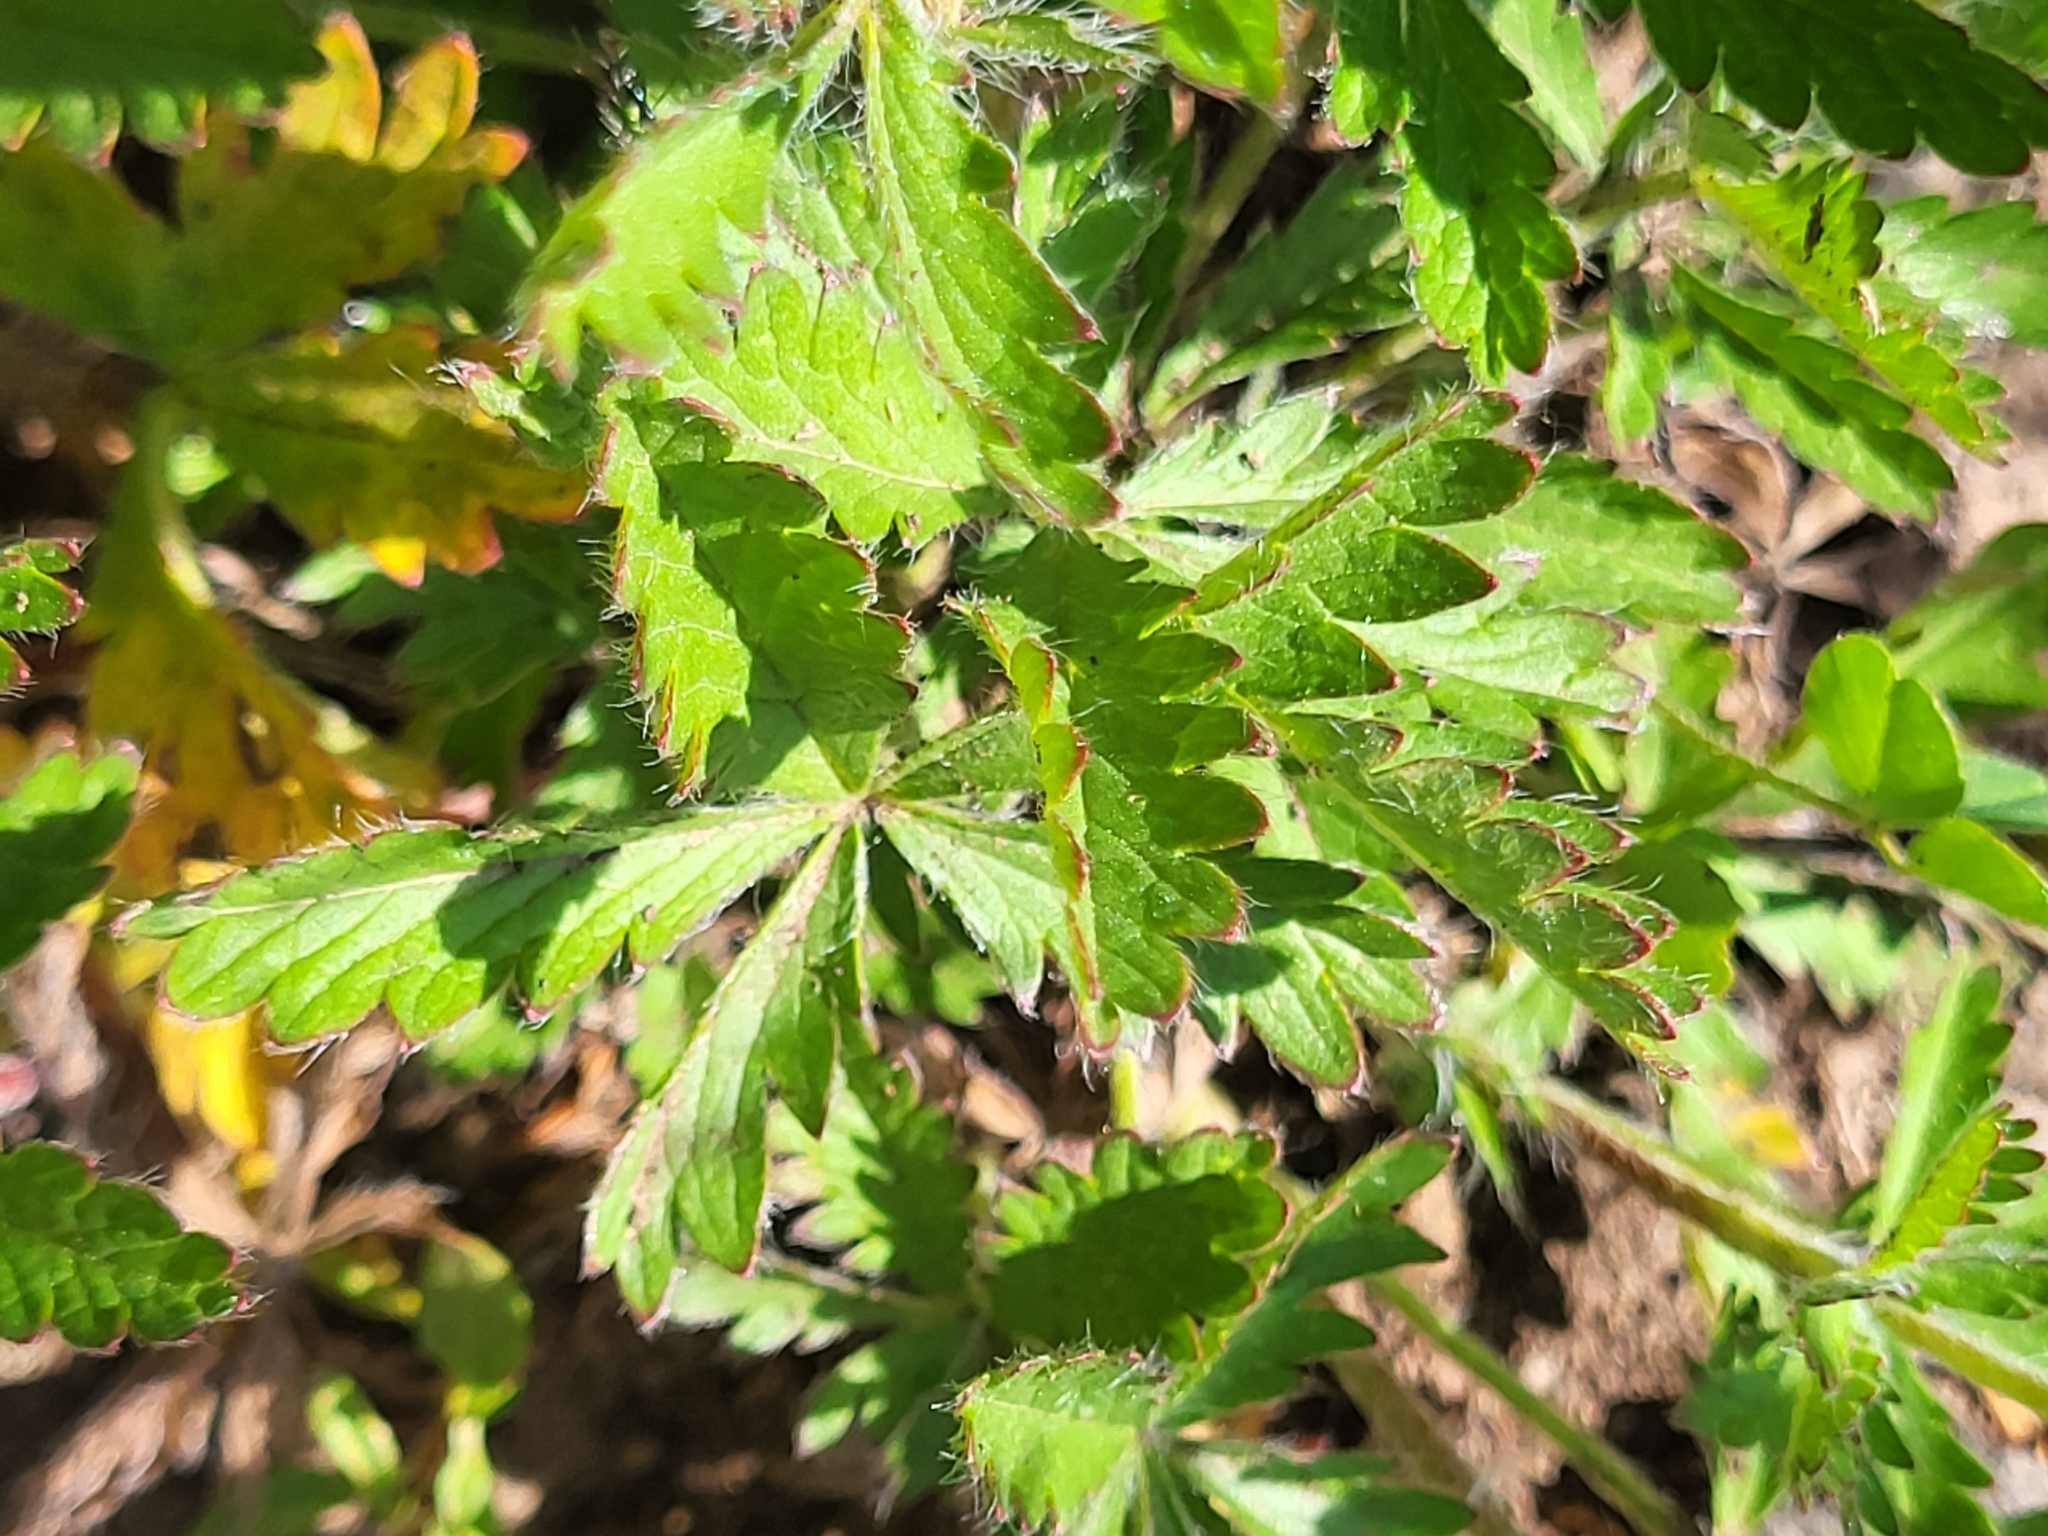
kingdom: Plantae
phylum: Tracheophyta
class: Magnoliopsida
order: Rosales
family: Rosaceae
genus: Potentilla
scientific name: Potentilla divaricata
